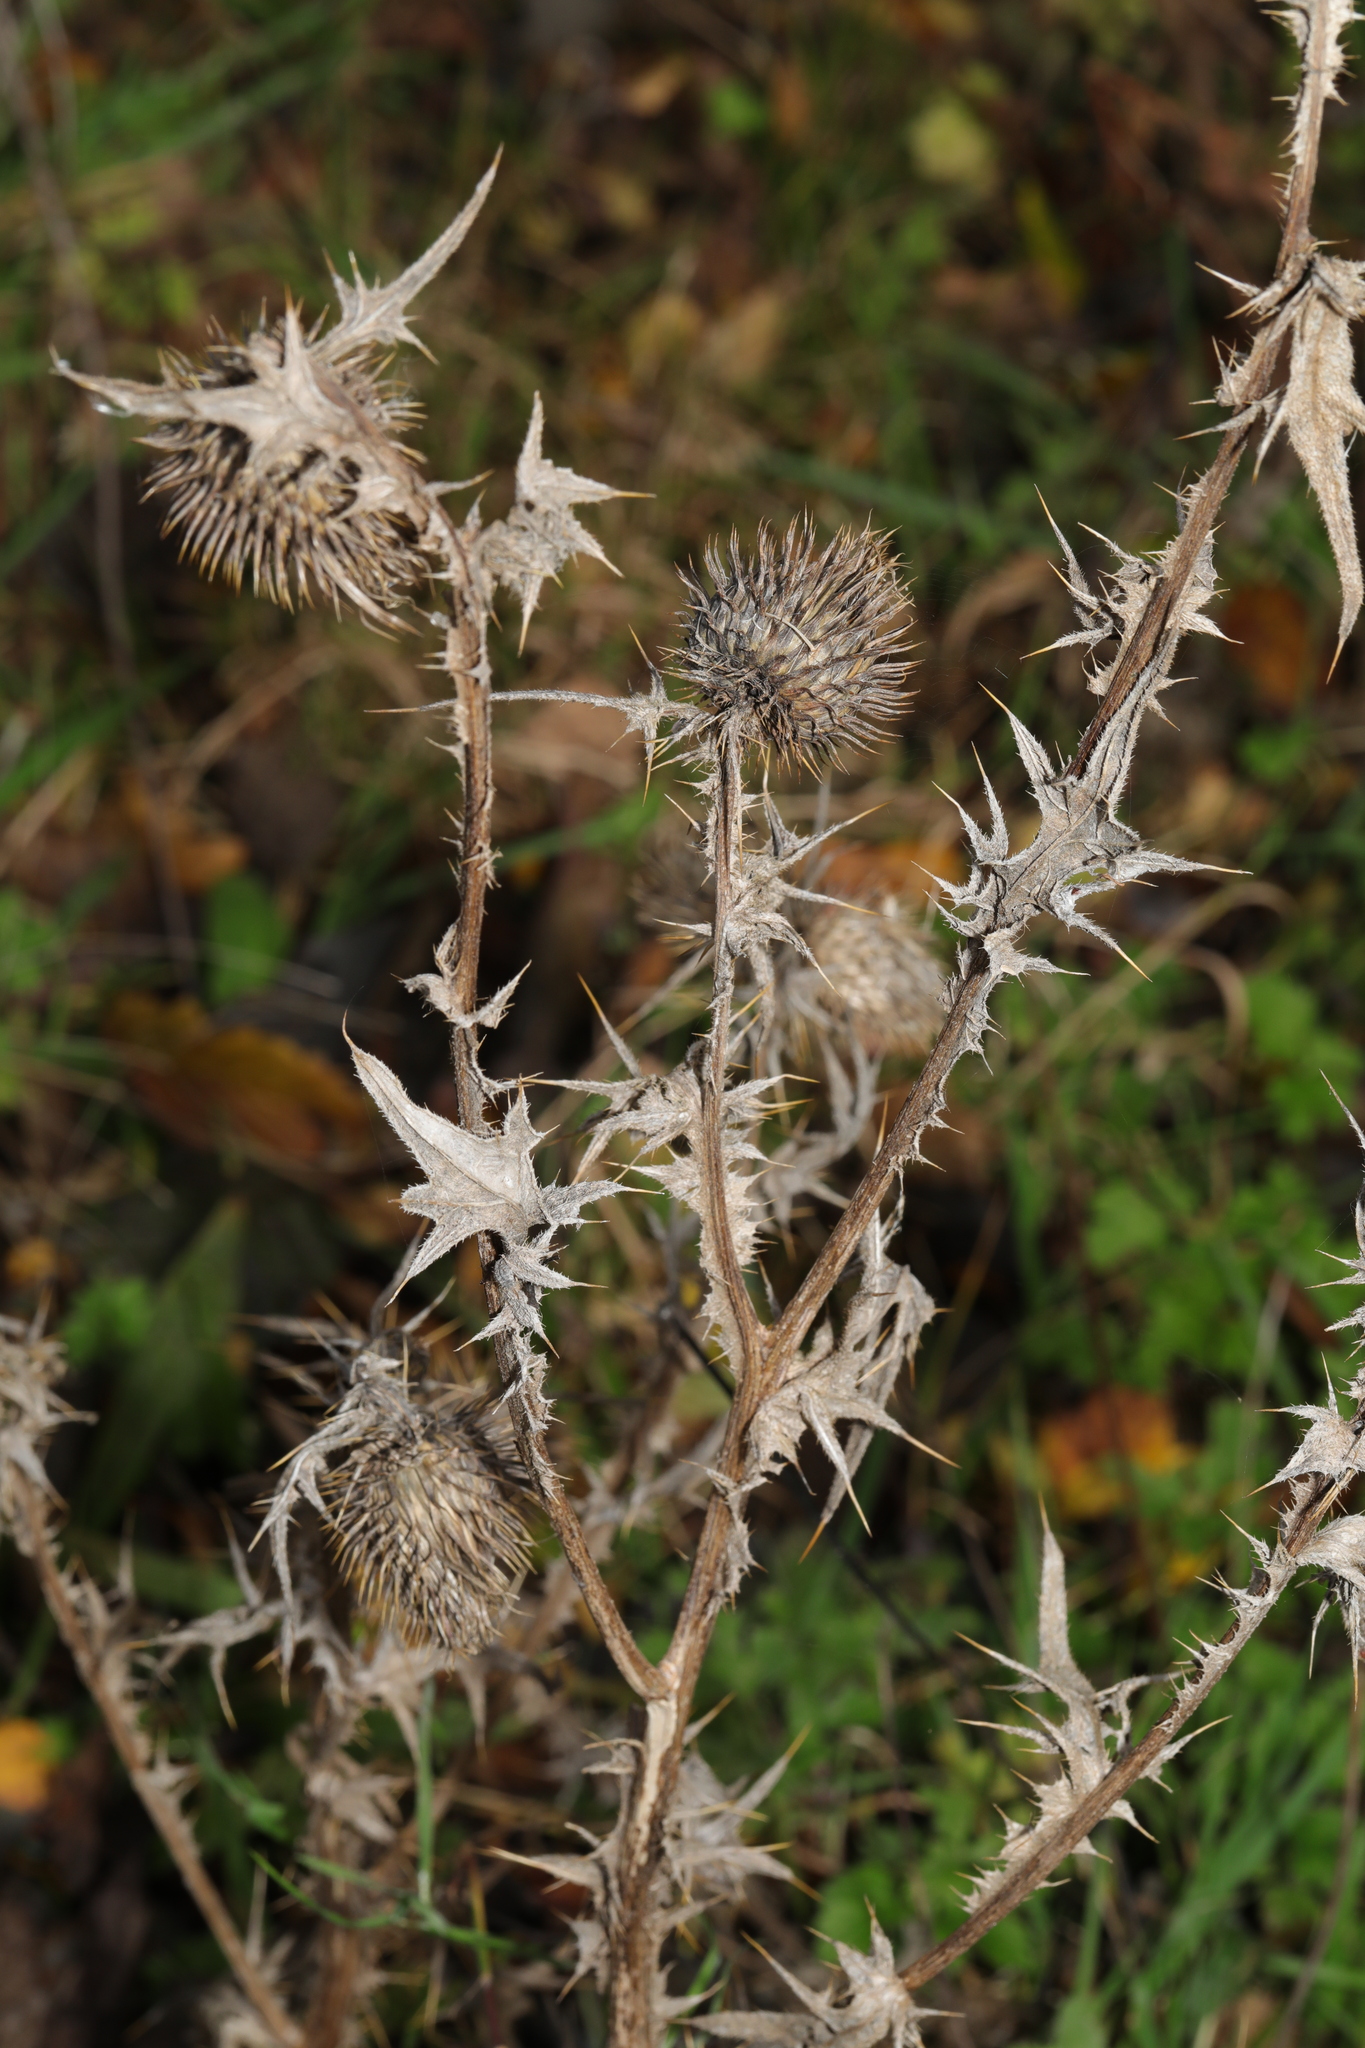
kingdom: Plantae
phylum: Tracheophyta
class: Magnoliopsida
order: Asterales
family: Asteraceae
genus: Cirsium
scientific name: Cirsium vulgare
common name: Bull thistle
